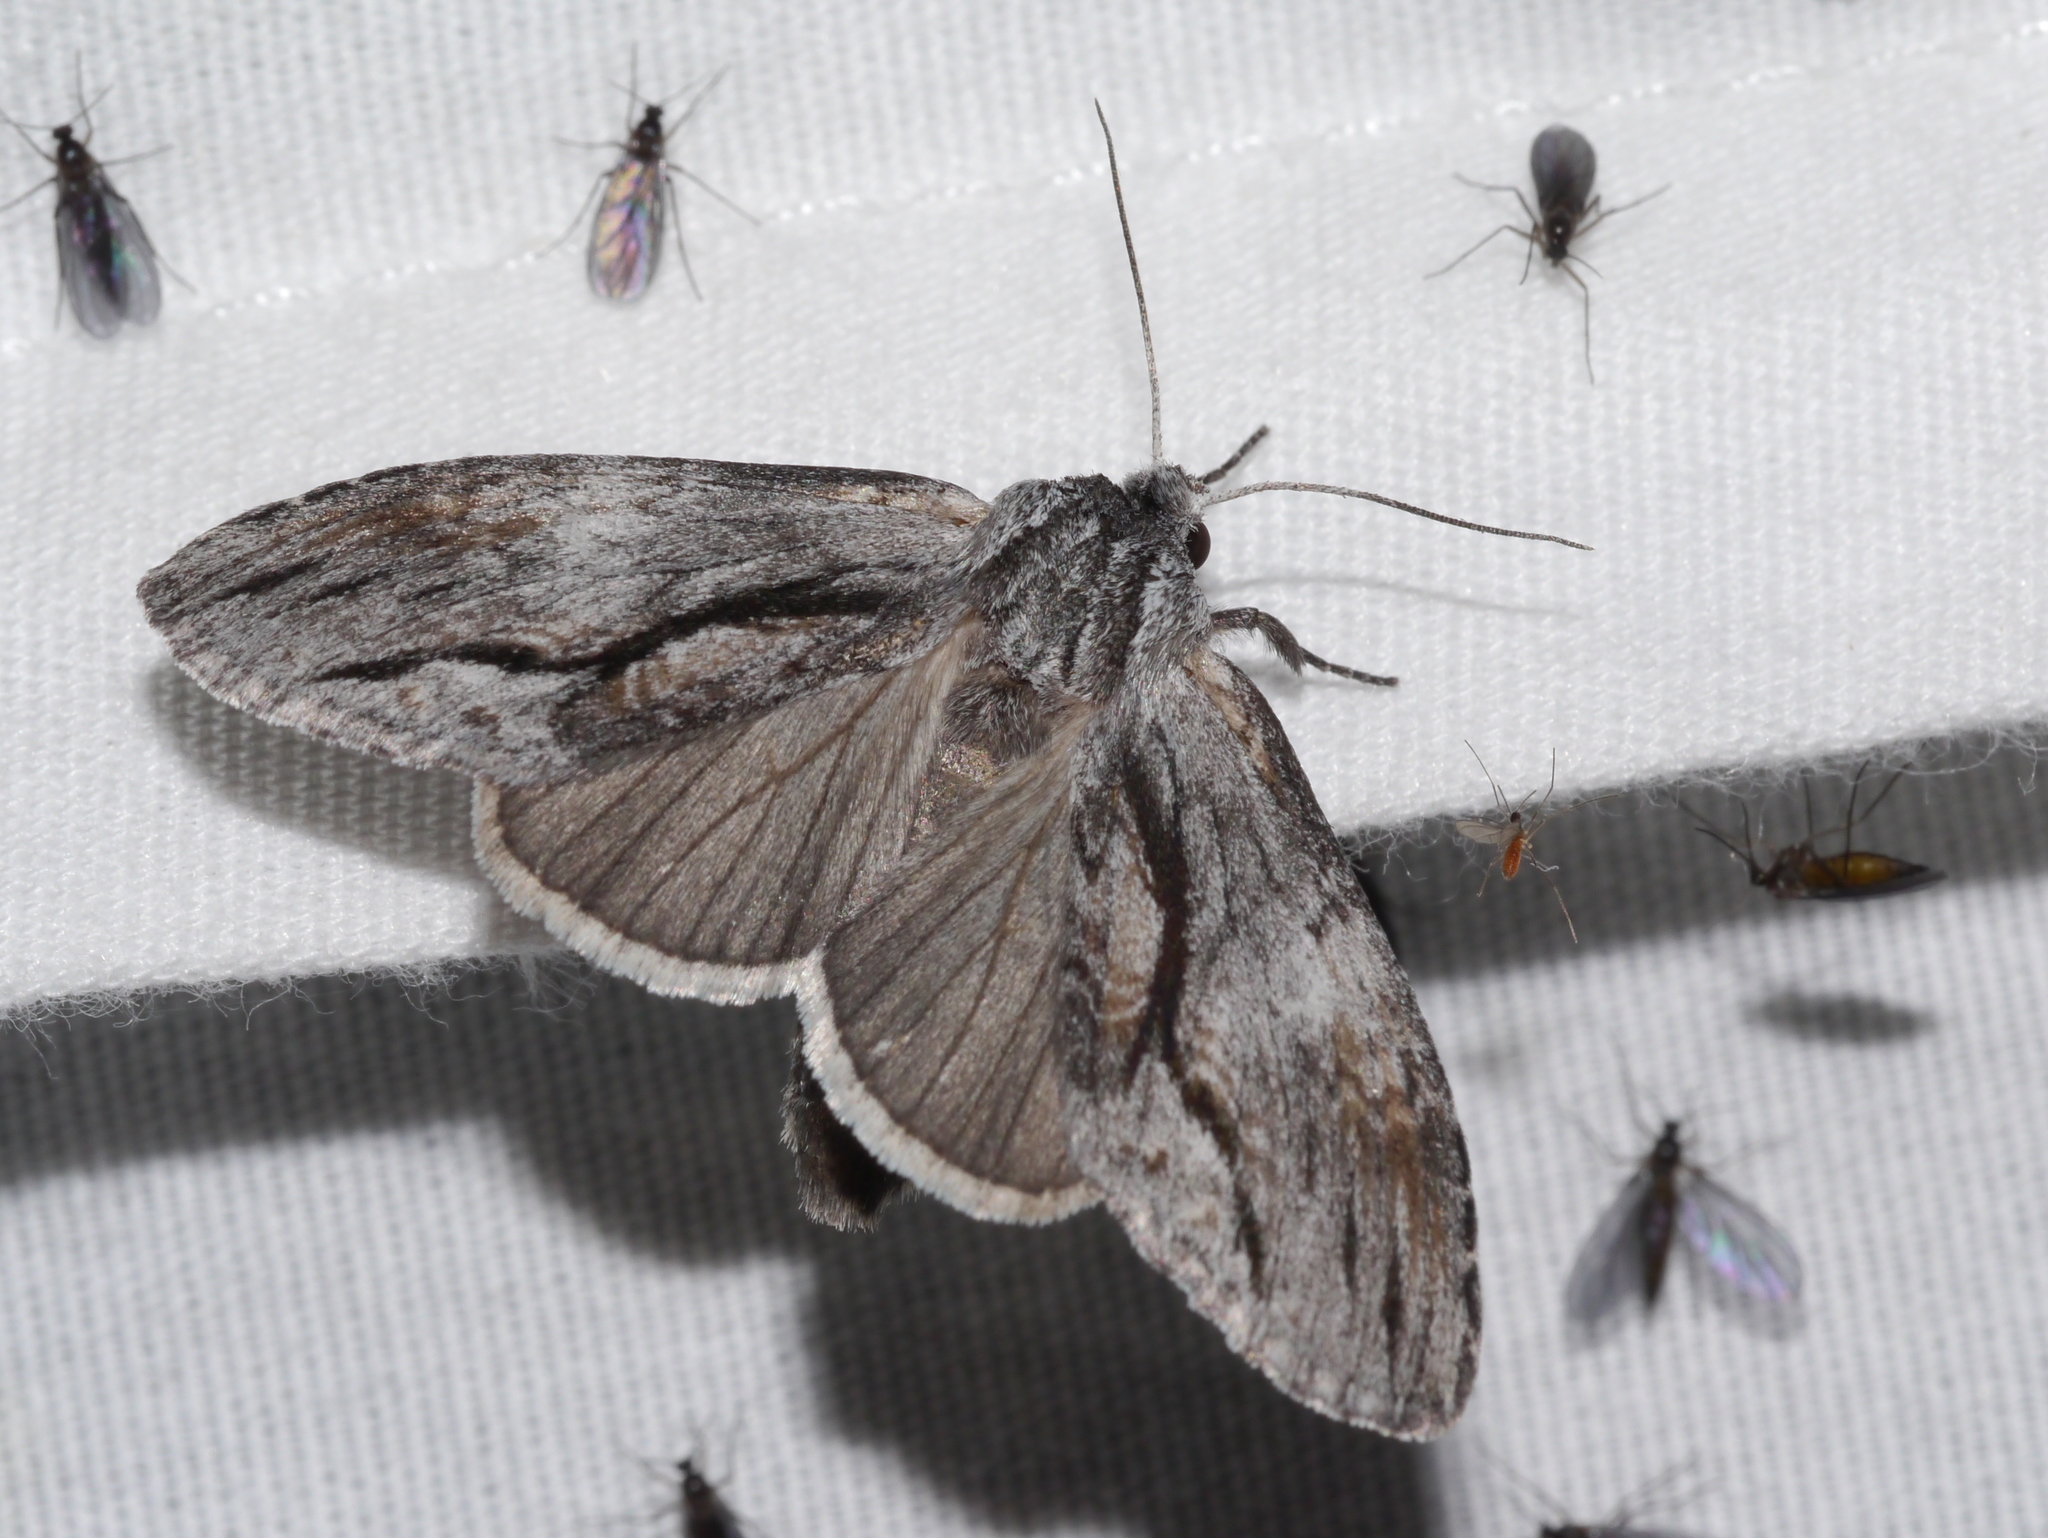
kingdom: Animalia
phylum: Arthropoda
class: Insecta
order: Lepidoptera
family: Notodontidae
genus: Notela
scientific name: Notela jaliscana
